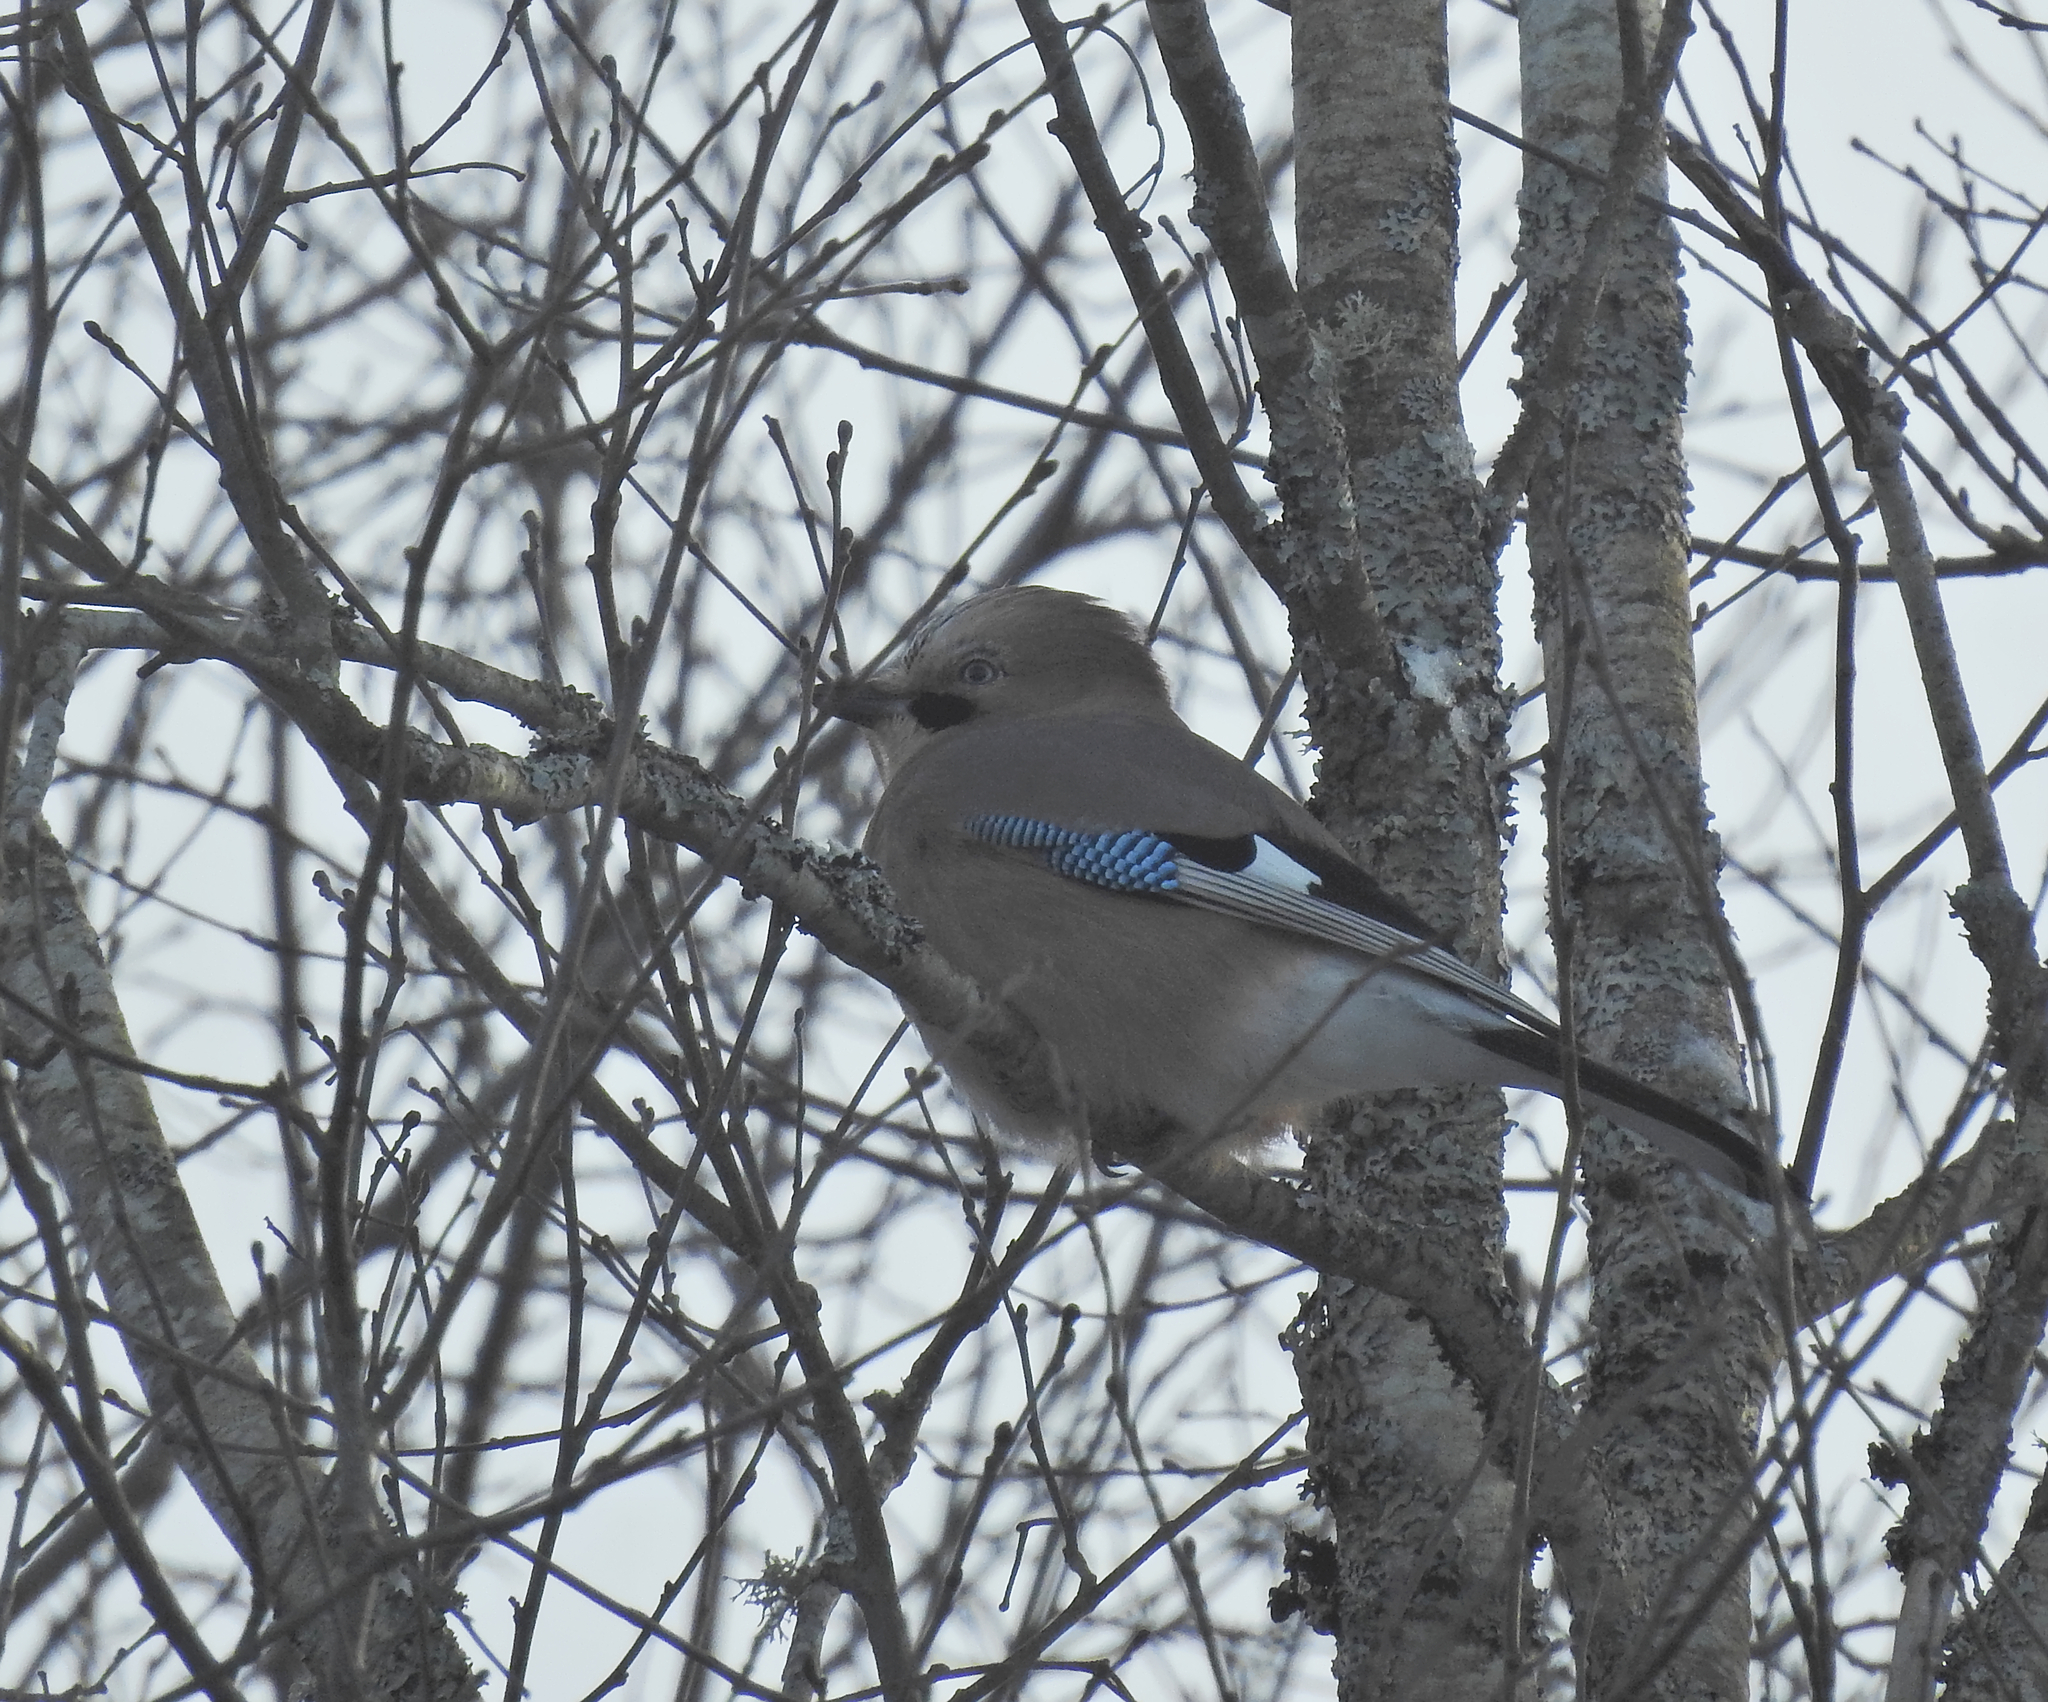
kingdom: Animalia
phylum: Chordata
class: Aves
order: Passeriformes
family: Corvidae
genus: Garrulus
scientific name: Garrulus glandarius
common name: Eurasian jay
